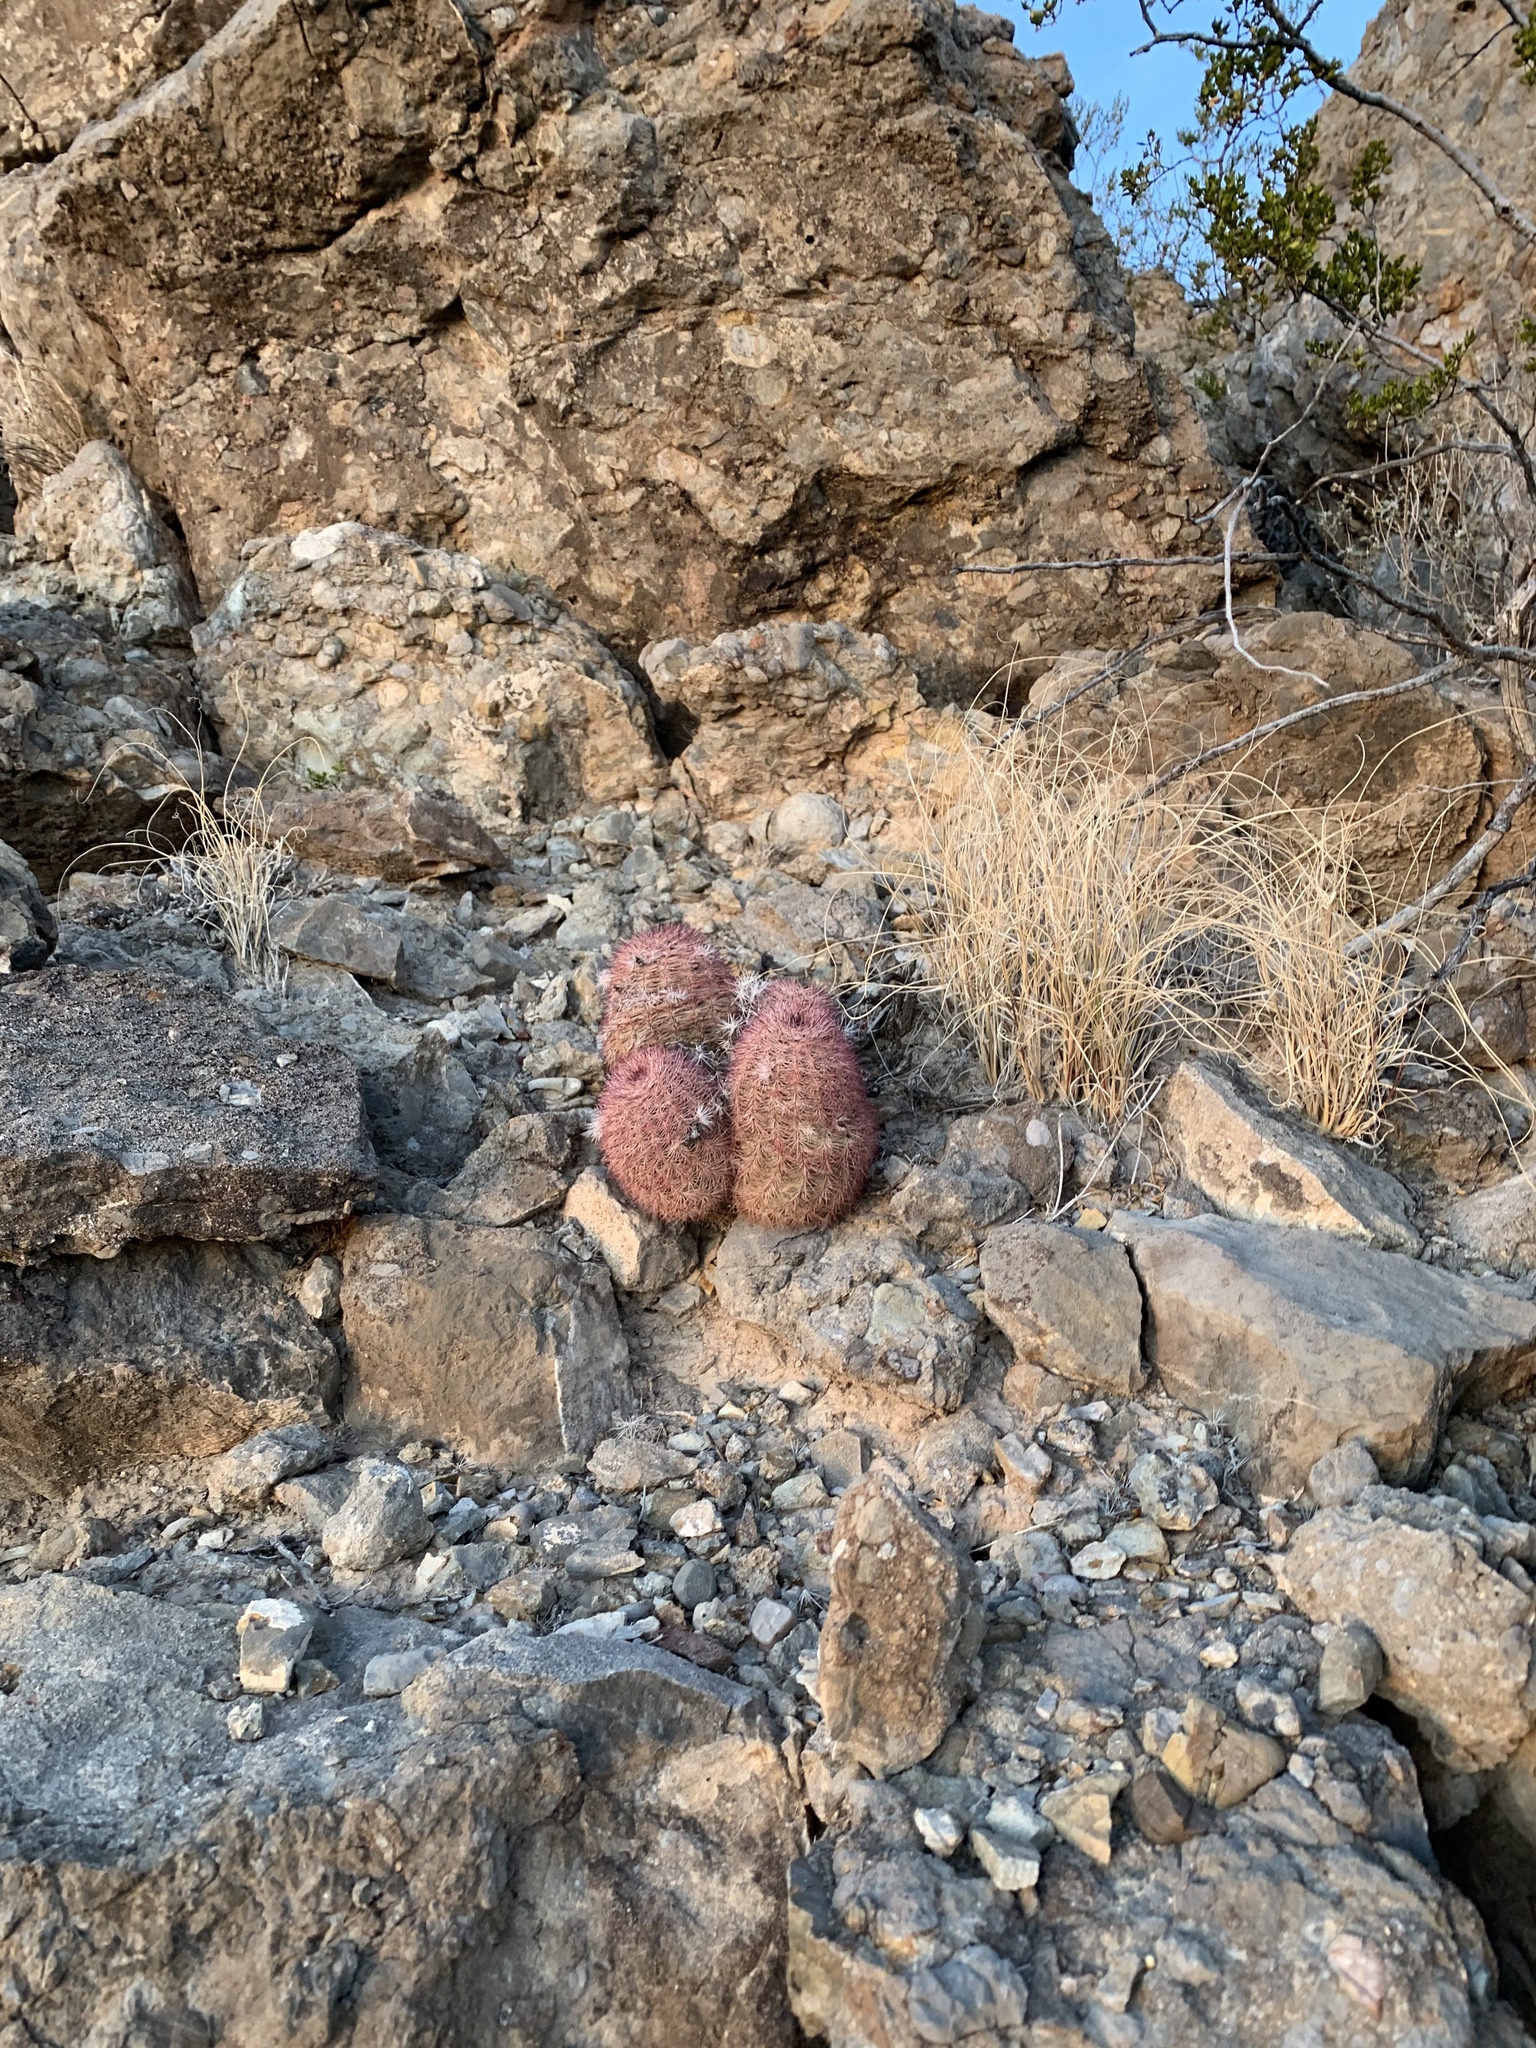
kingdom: Plantae
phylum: Tracheophyta
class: Magnoliopsida
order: Caryophyllales
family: Cactaceae
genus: Echinocereus
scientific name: Echinocereus dasyacanthus
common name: Spiny hedgehog cactus
